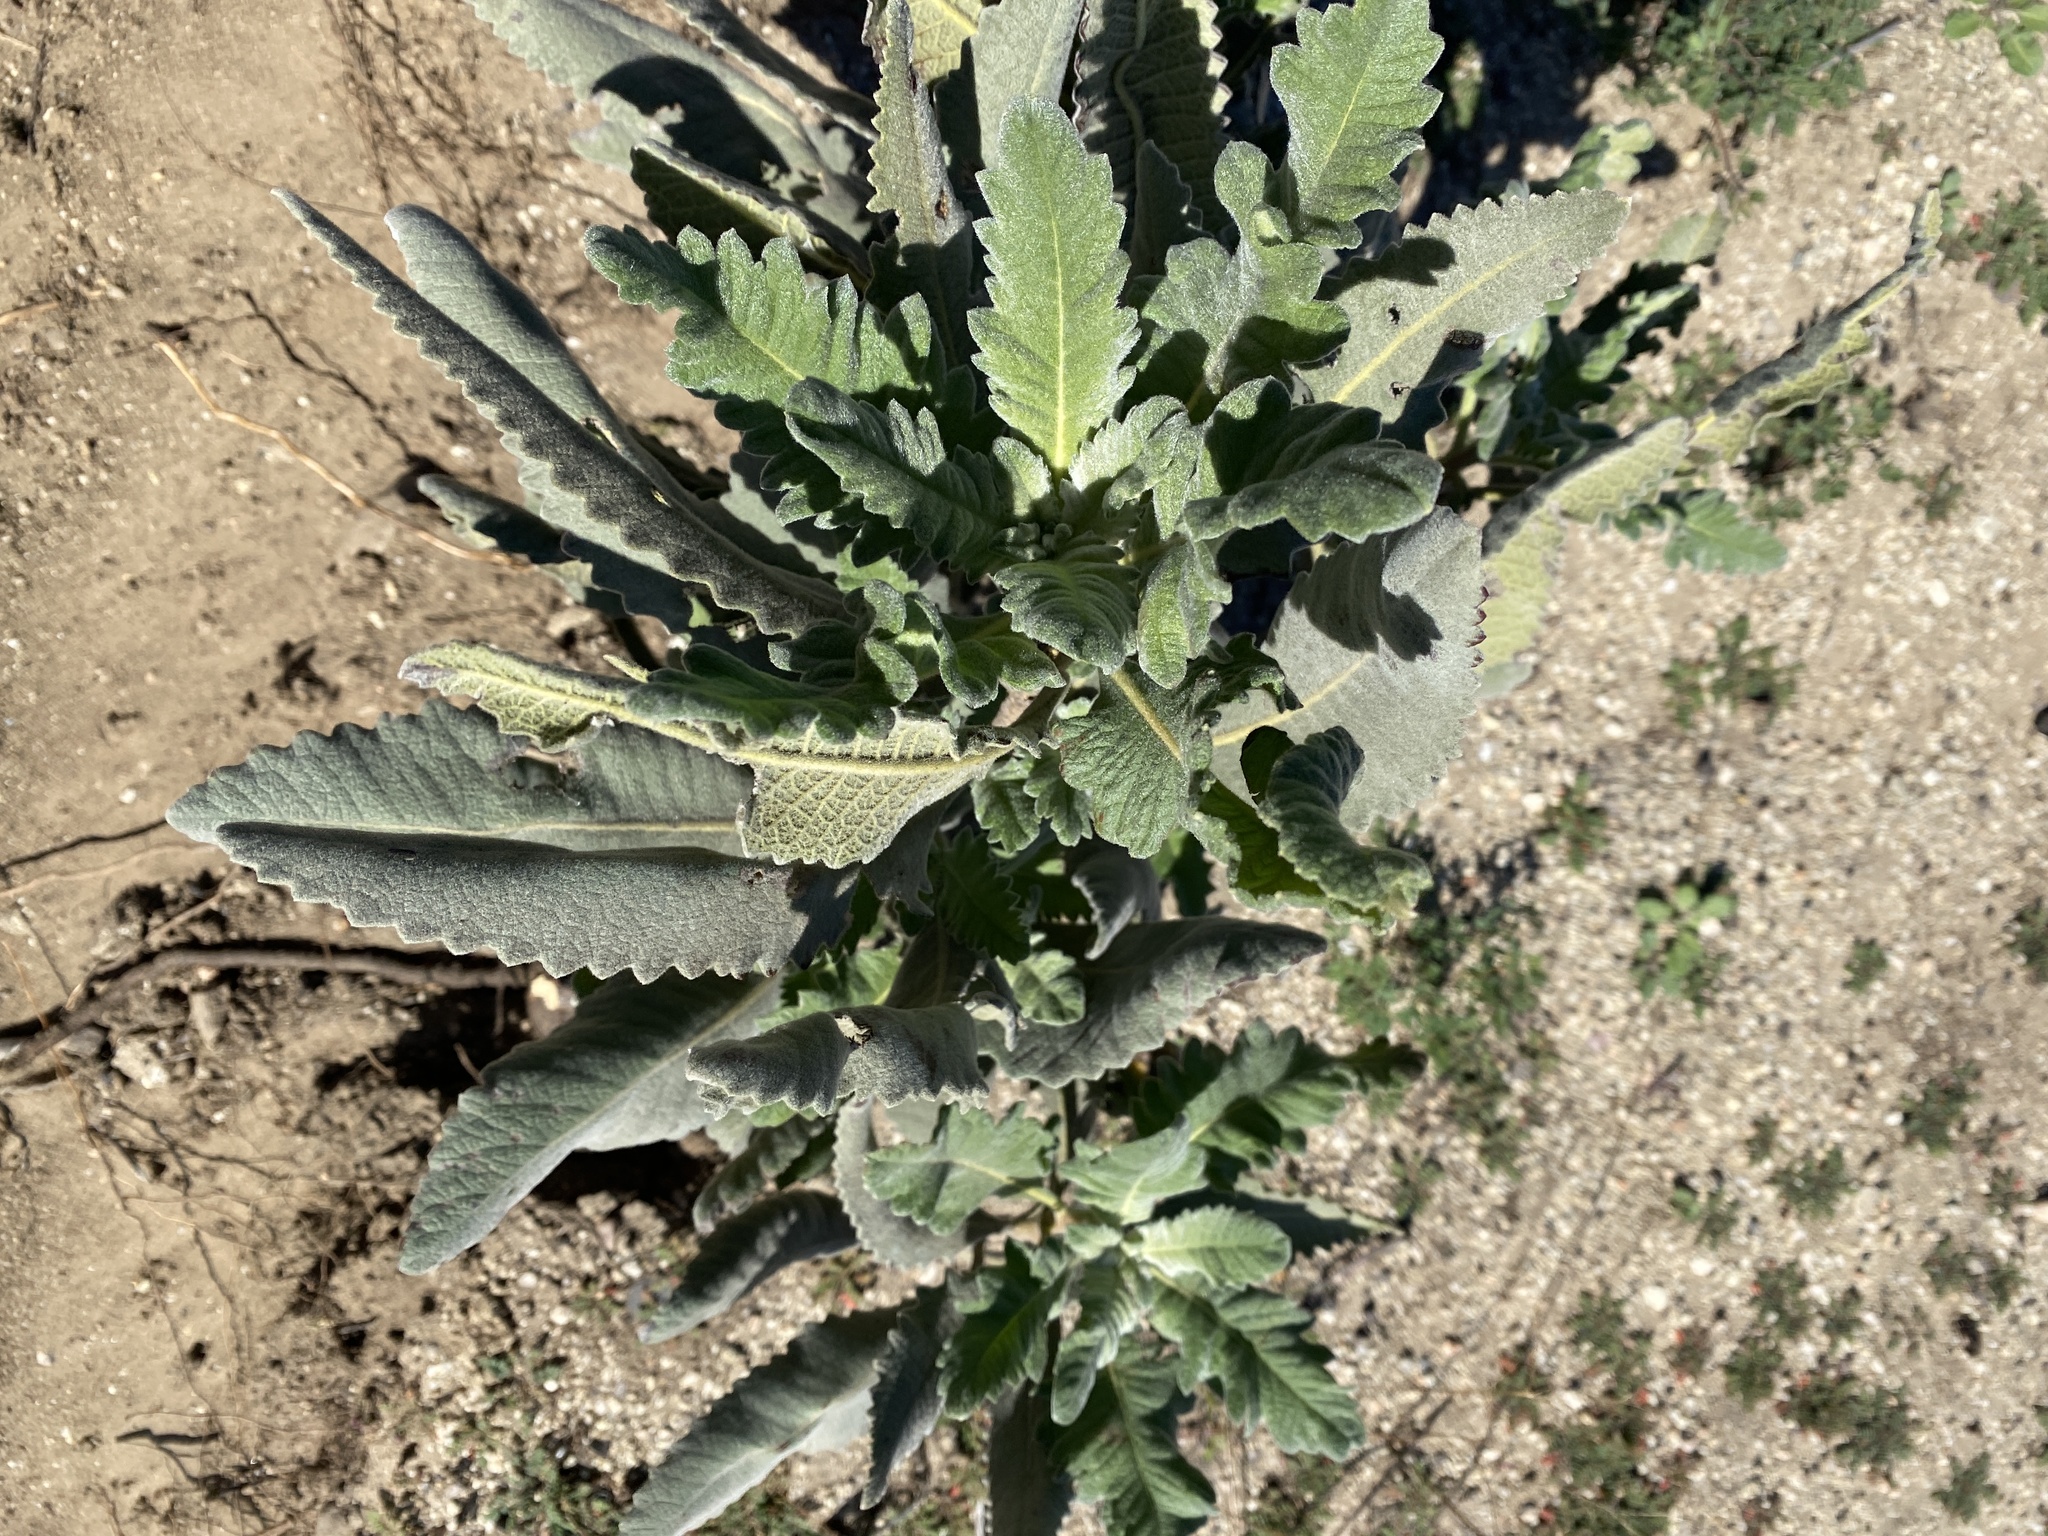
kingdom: Plantae
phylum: Tracheophyta
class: Magnoliopsida
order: Boraginales
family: Namaceae
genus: Eriodictyon
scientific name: Eriodictyon crassifolium
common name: Thick-leaf yerba-santa
